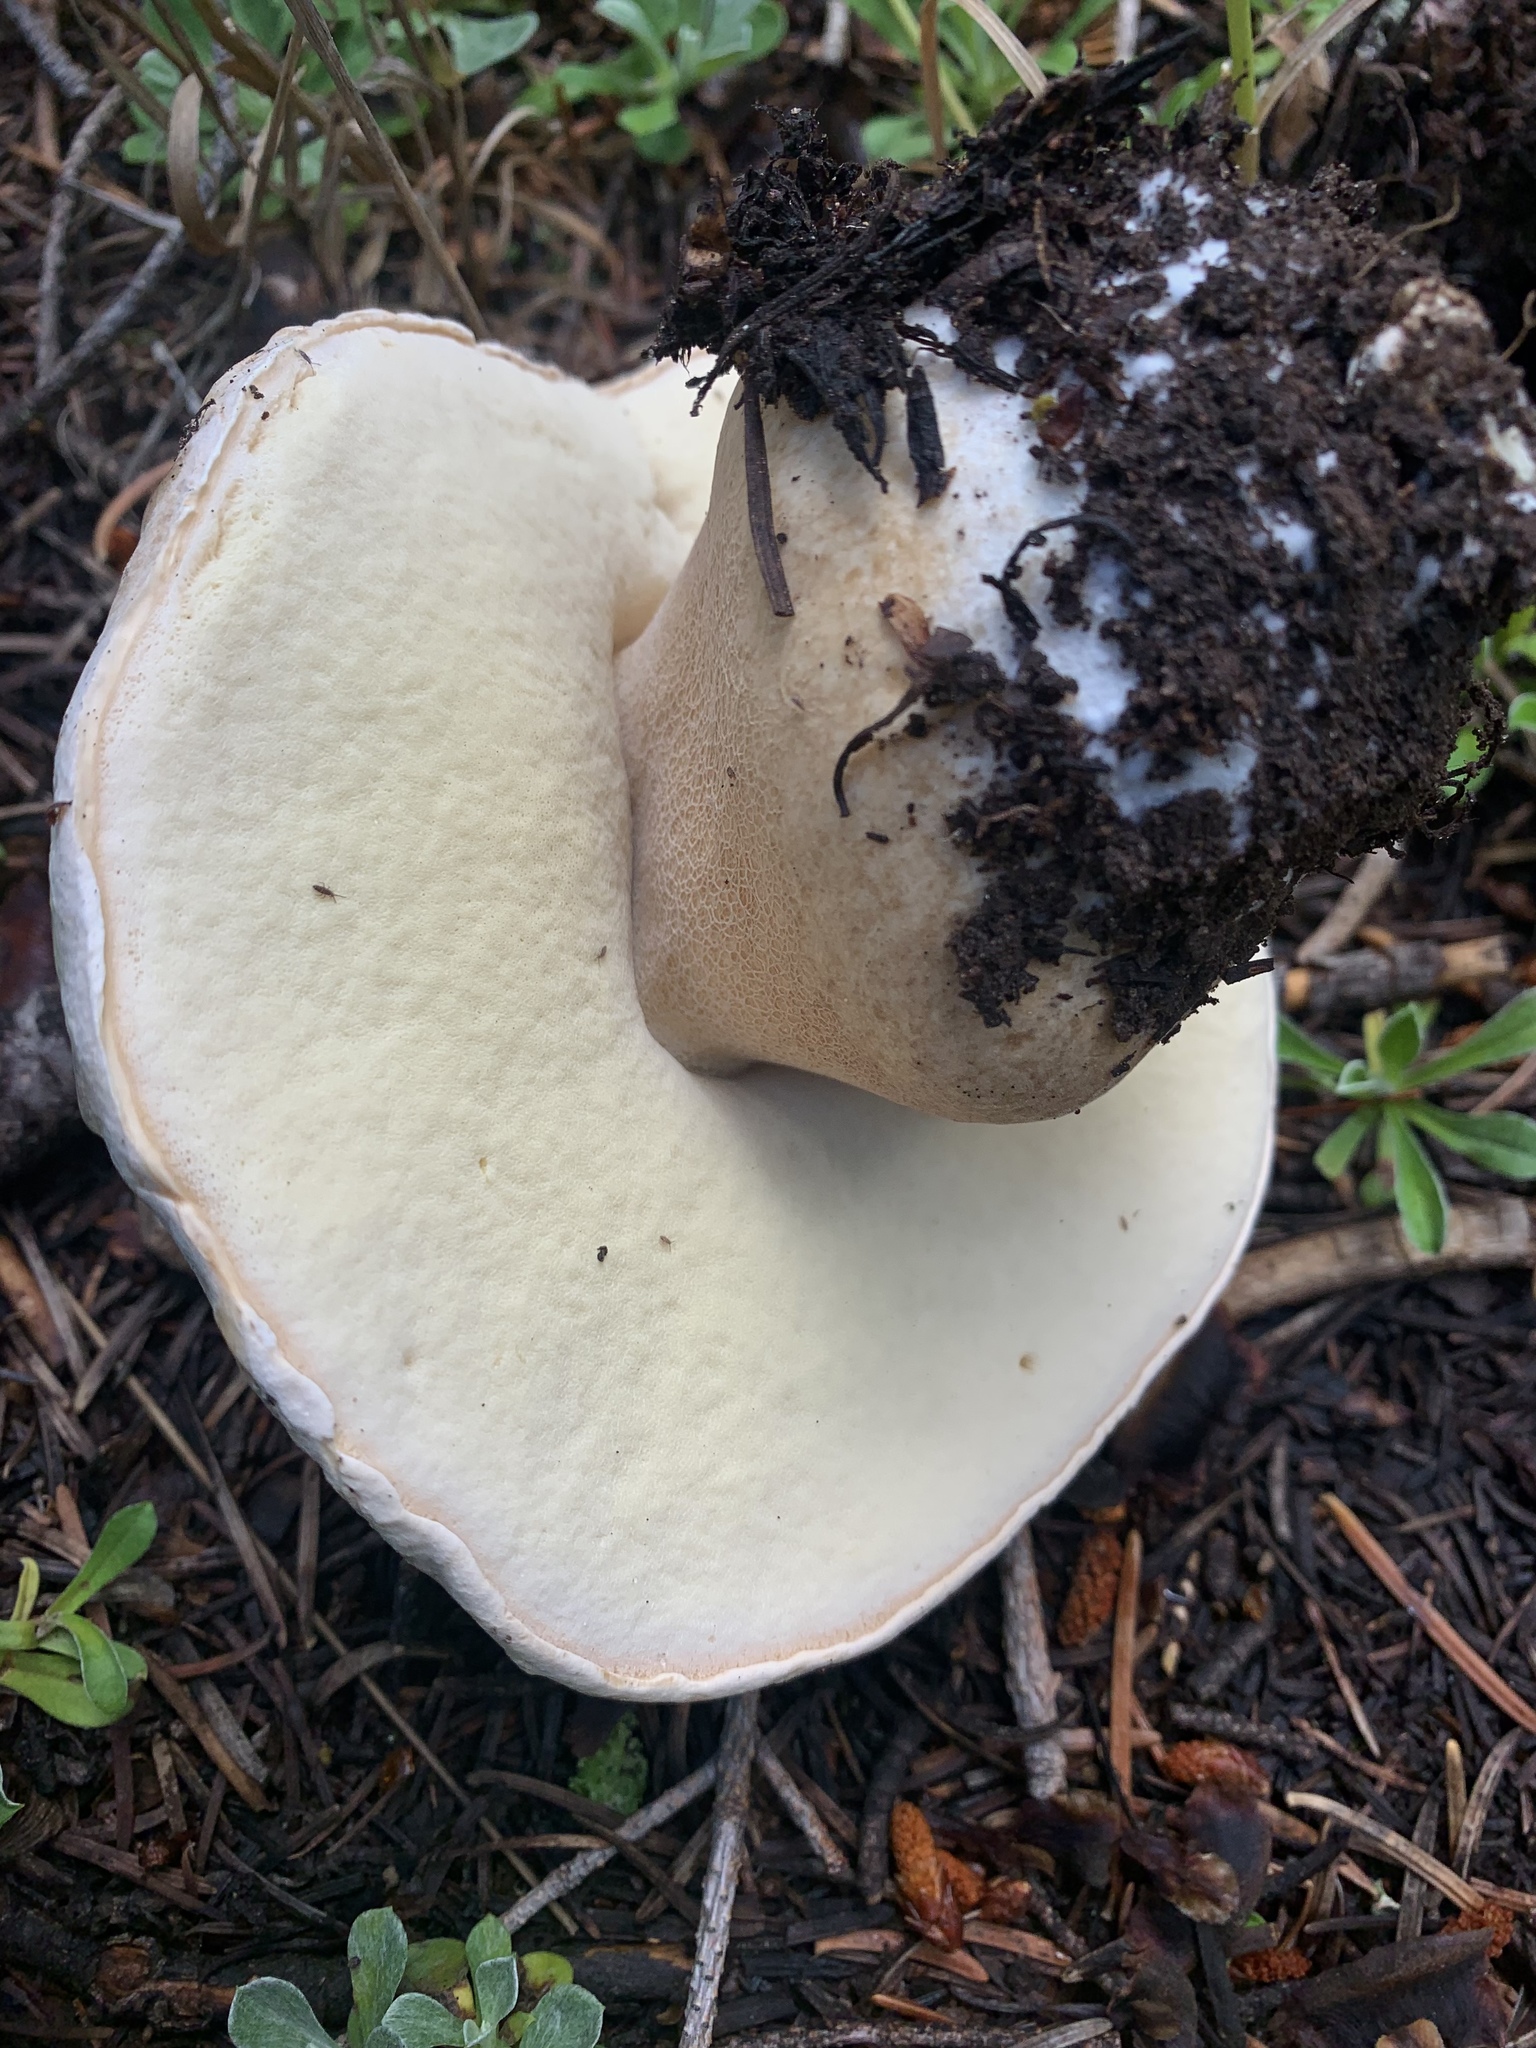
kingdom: Fungi
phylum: Basidiomycota
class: Agaricomycetes
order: Boletales
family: Boletaceae
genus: Boletus
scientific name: Boletus barrowsii
